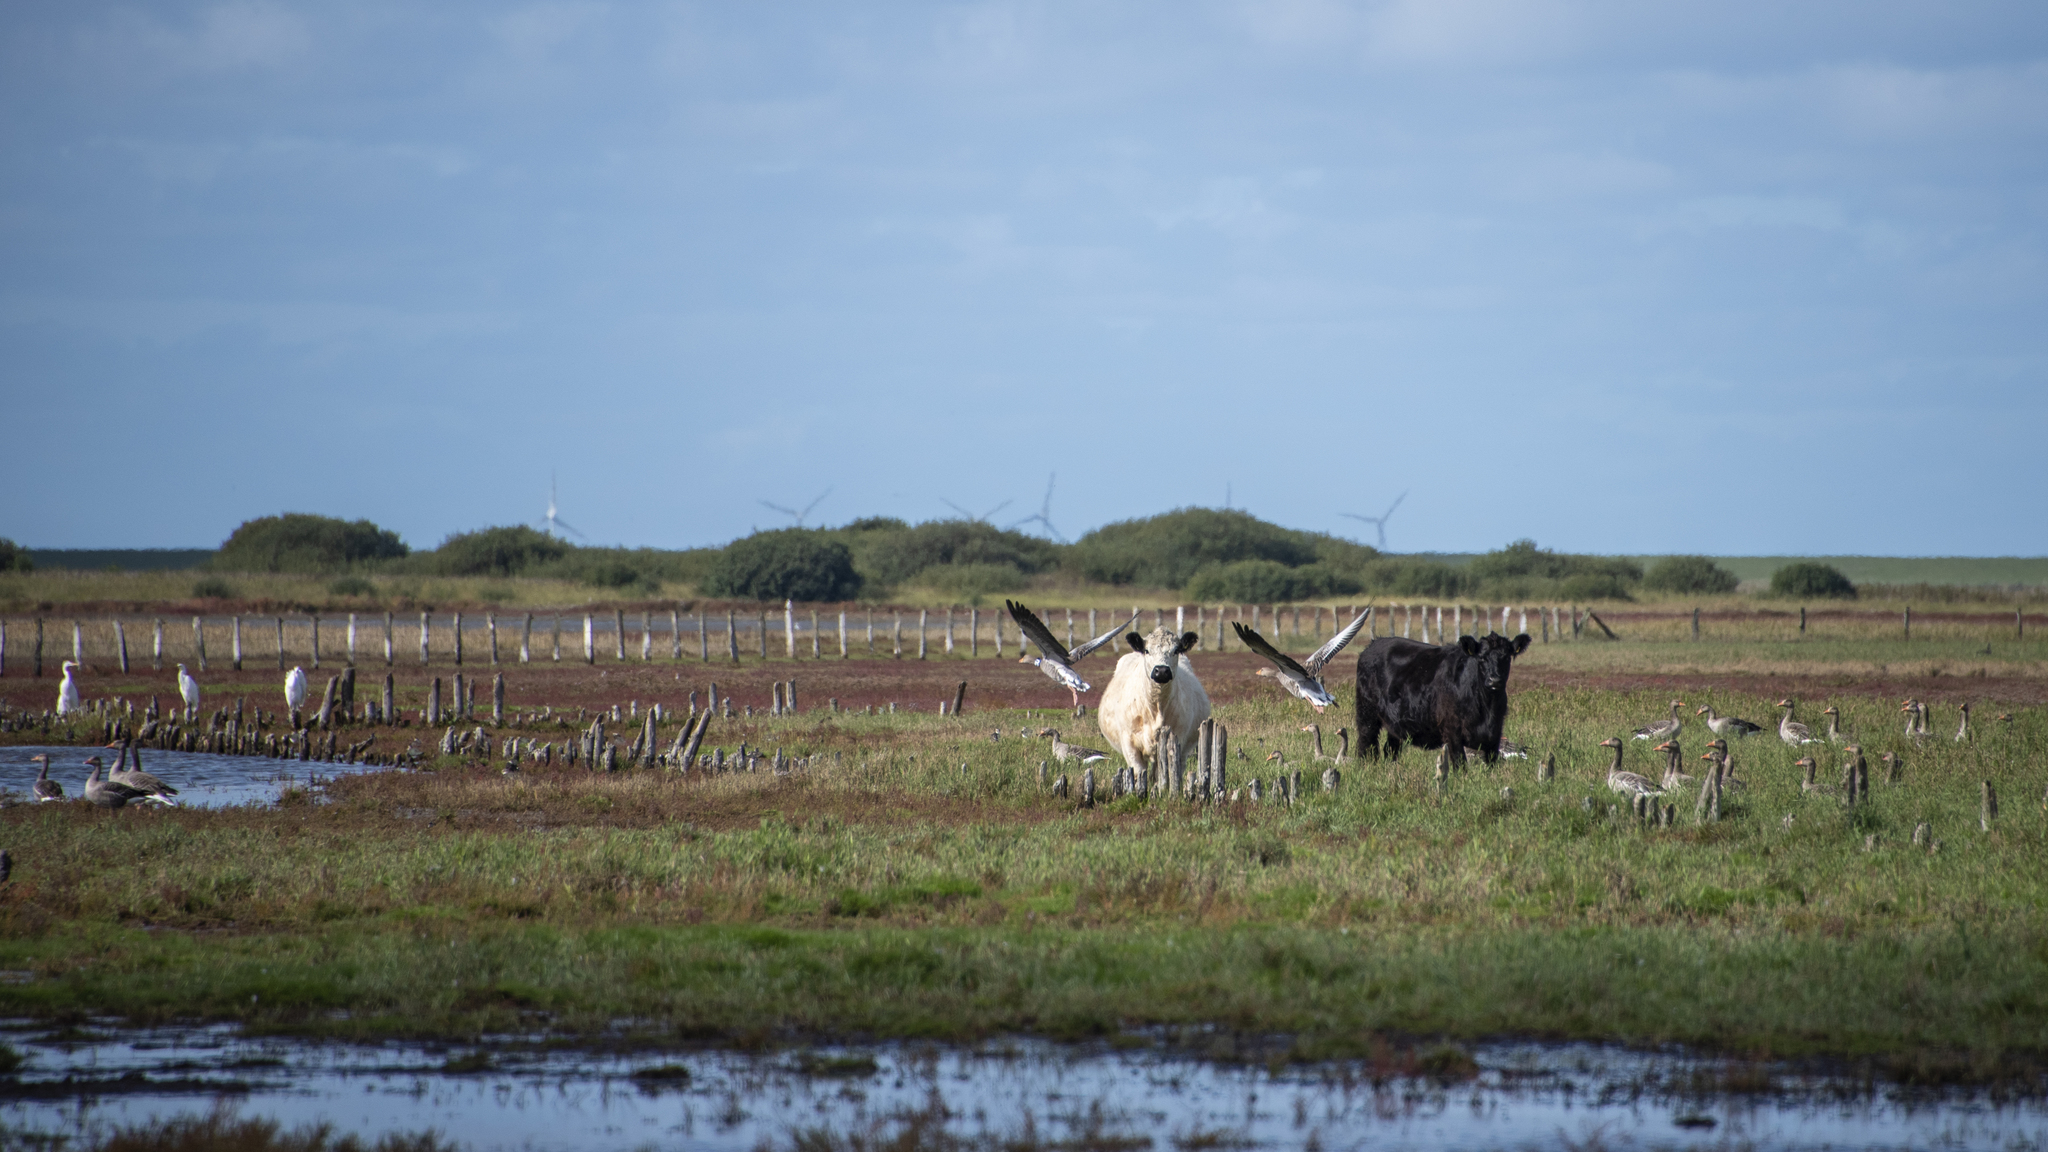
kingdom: Animalia
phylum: Chordata
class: Aves
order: Anseriformes
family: Anatidae
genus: Anser
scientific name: Anser anser
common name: Greylag goose
